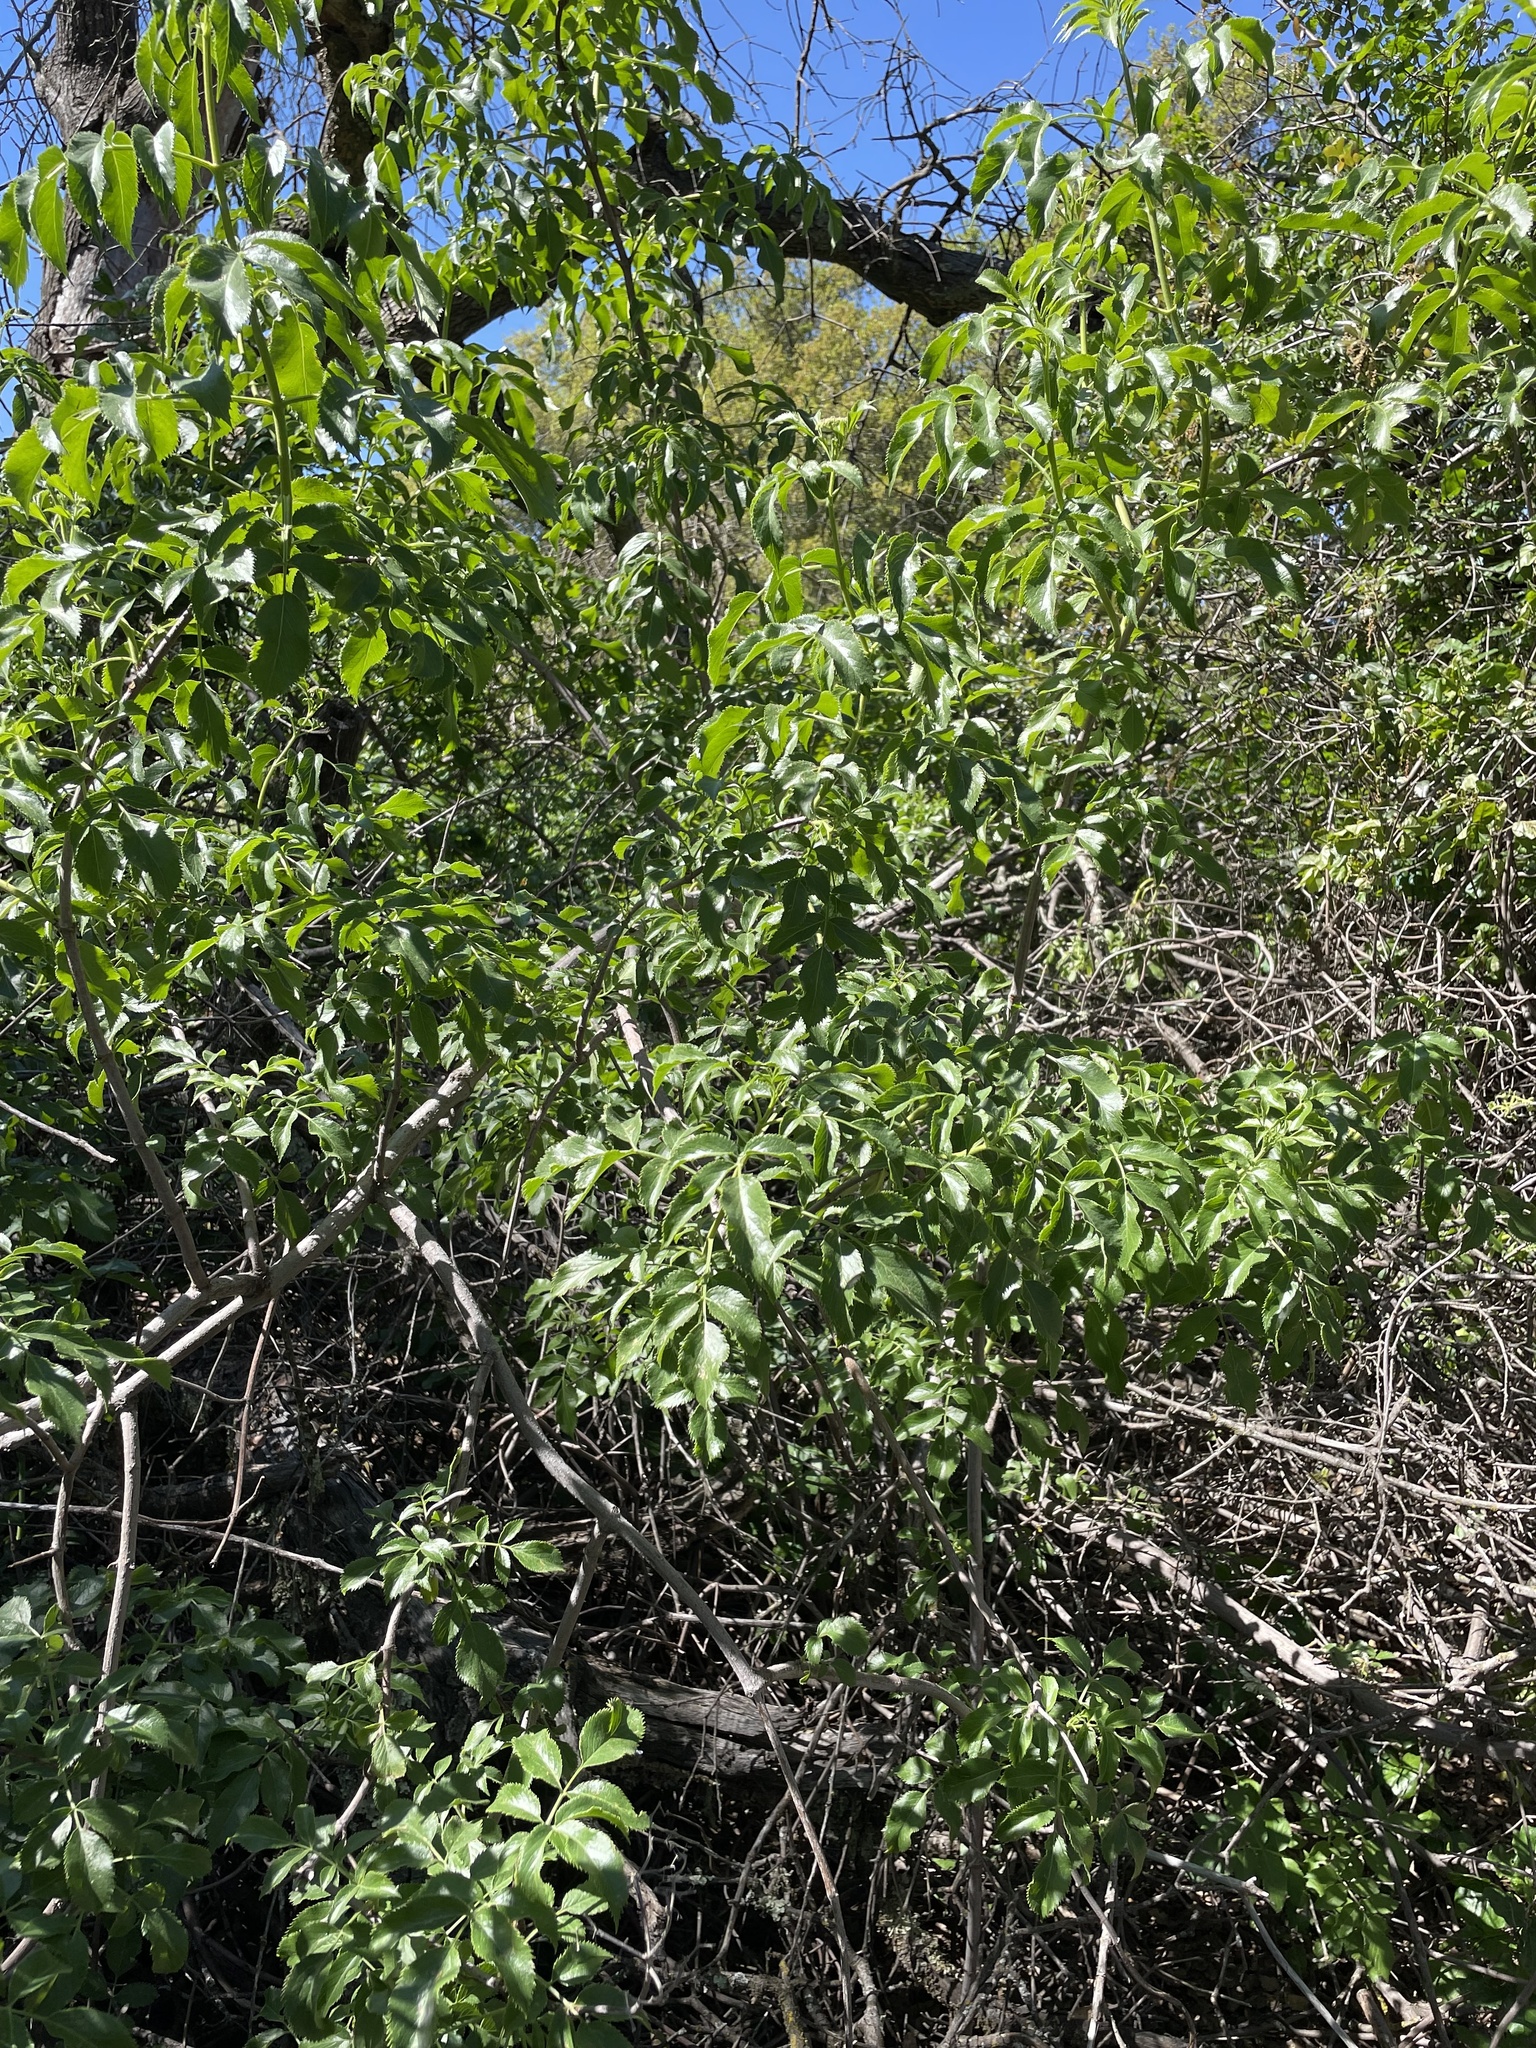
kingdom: Plantae
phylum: Tracheophyta
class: Magnoliopsida
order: Dipsacales
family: Viburnaceae
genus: Sambucus
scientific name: Sambucus cerulea
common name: Blue elder
